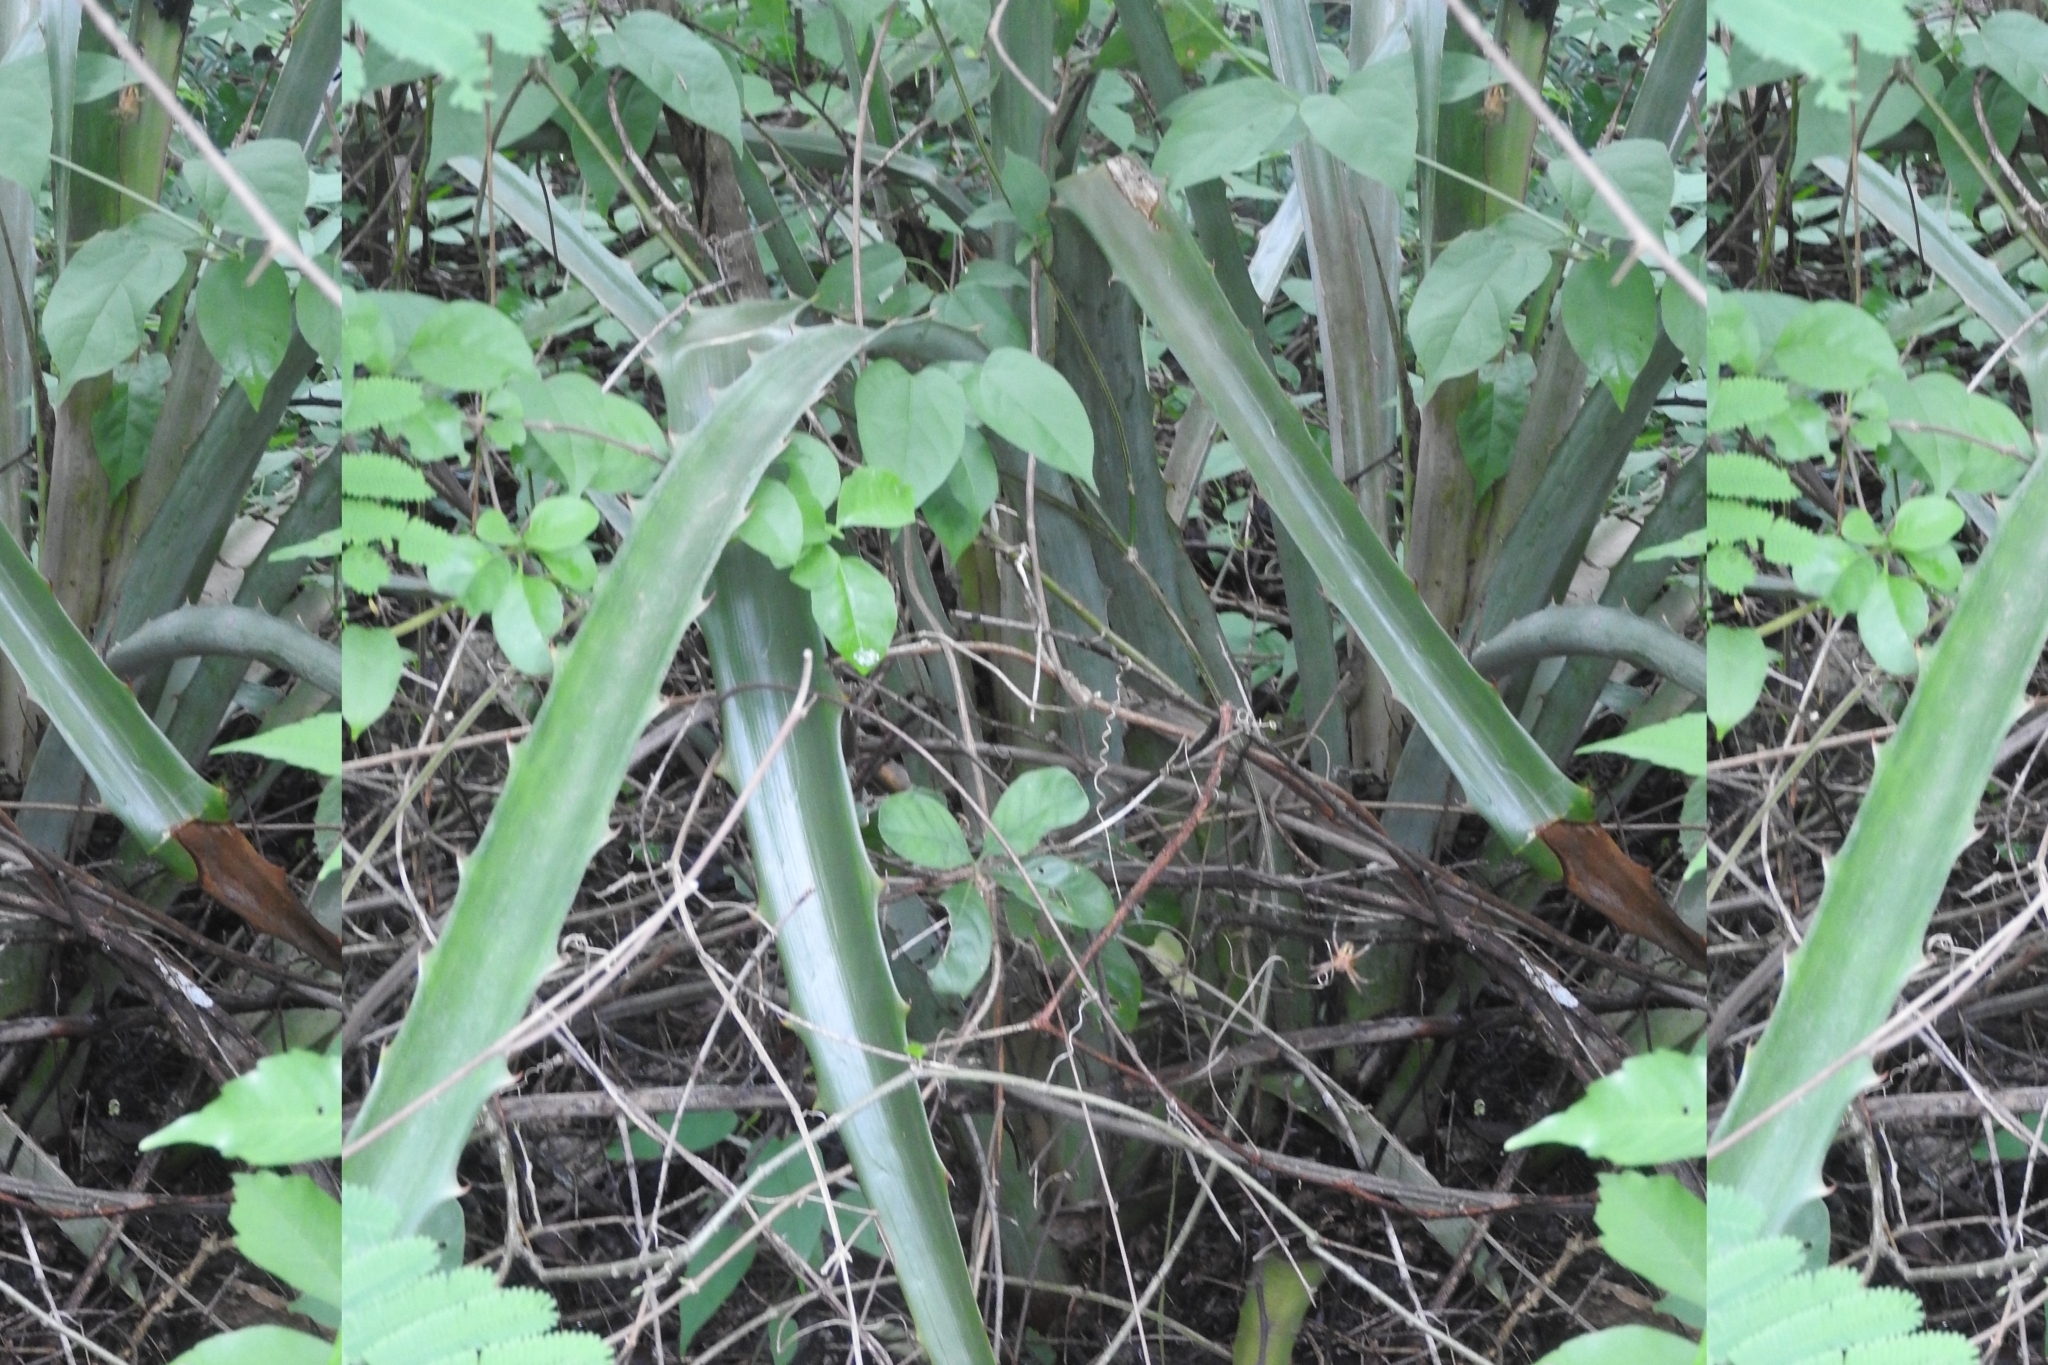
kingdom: Plantae
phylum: Tracheophyta
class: Liliopsida
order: Poales
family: Bromeliaceae
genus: Bromelia
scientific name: Bromelia pinguin
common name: Pinguin
